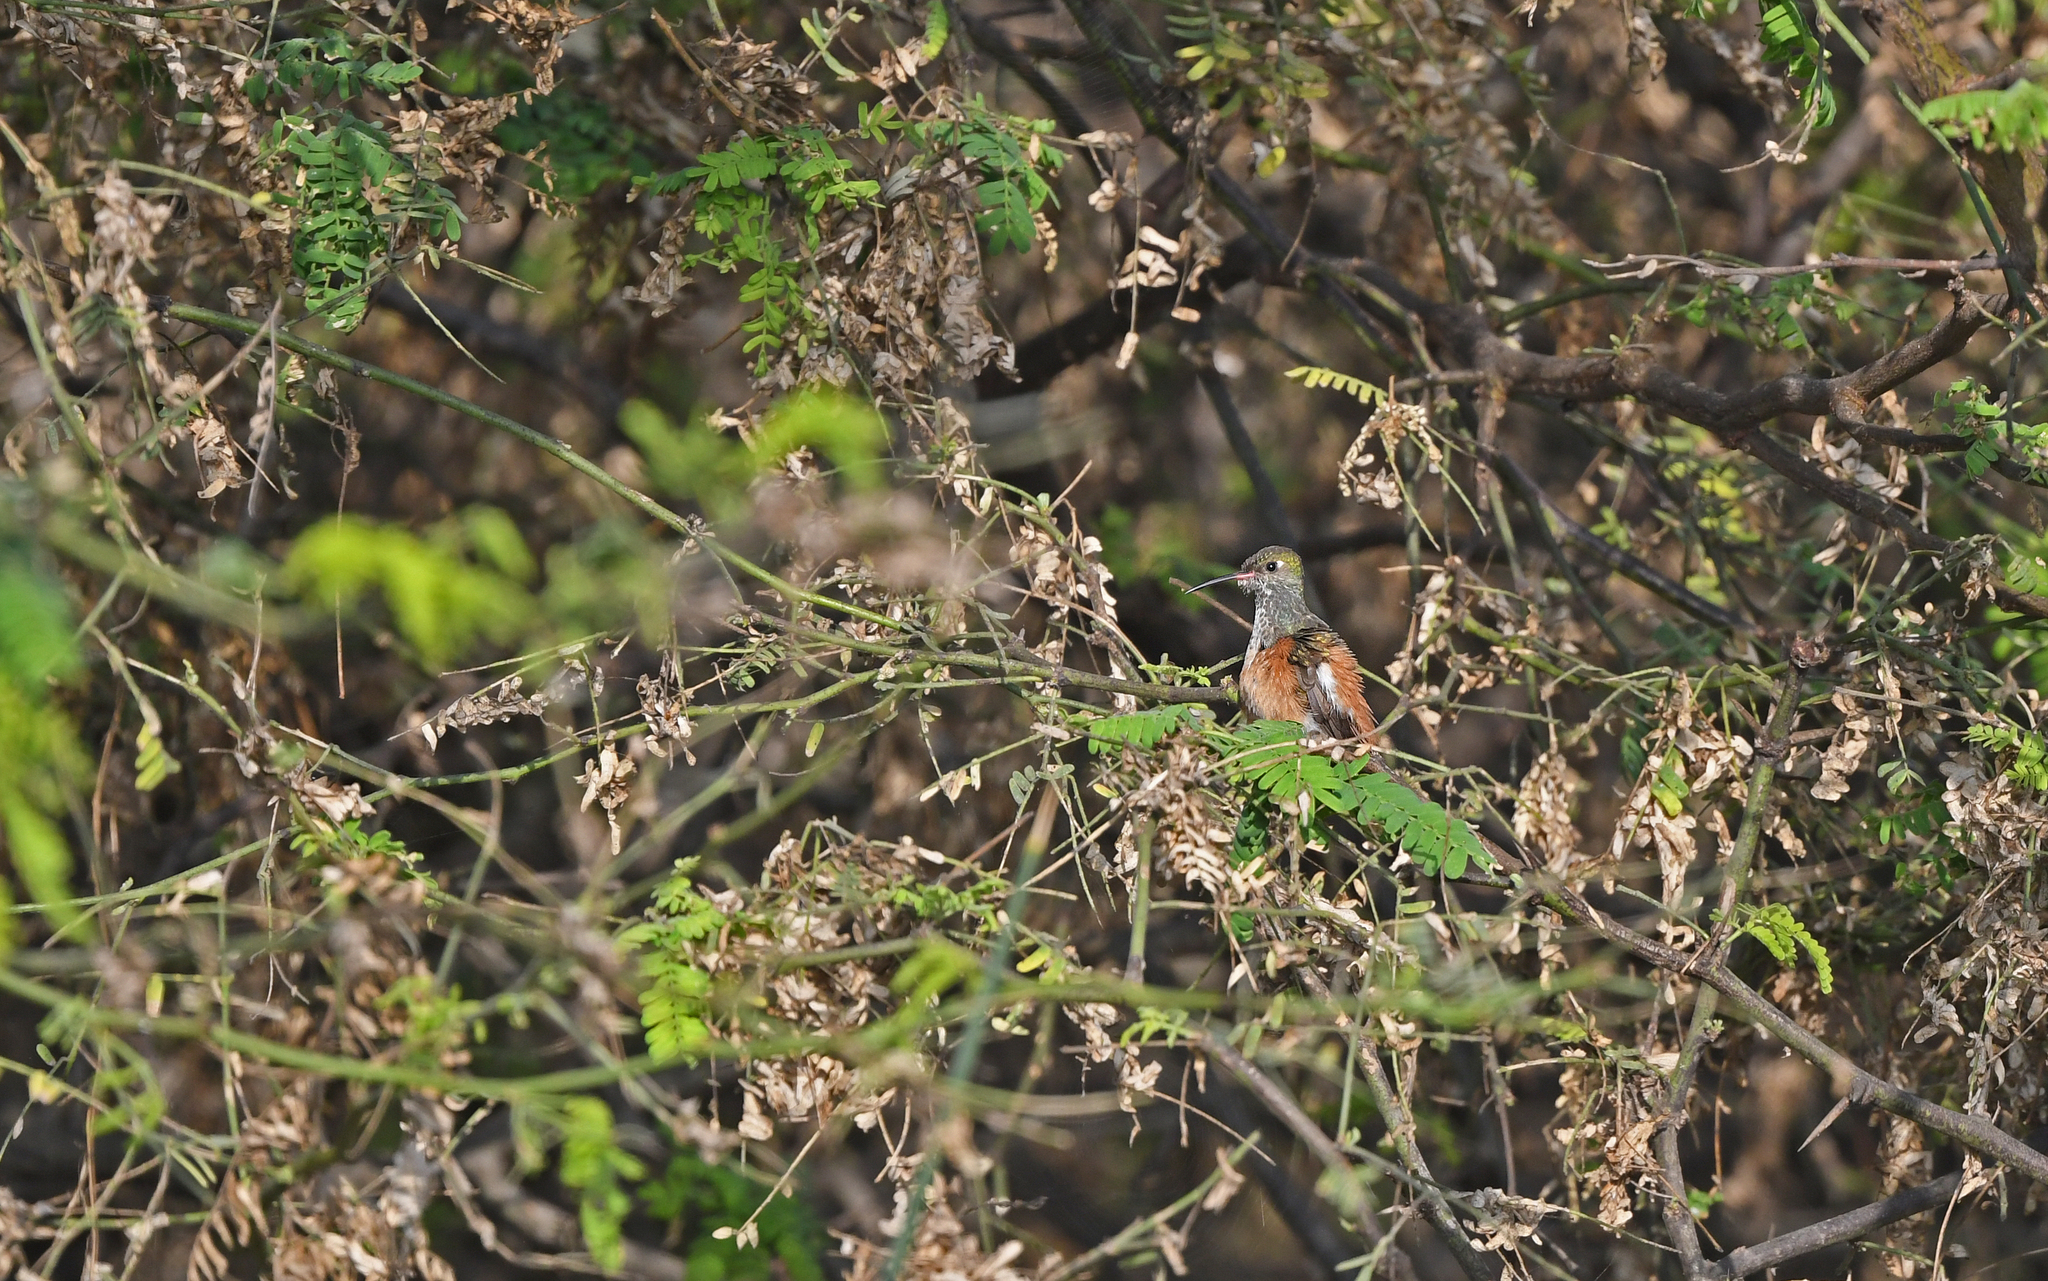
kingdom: Animalia
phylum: Chordata
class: Aves
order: Apodiformes
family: Trochilidae
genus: Amazilis
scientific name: Amazilis amazilia
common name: Amazilia hummingbird
